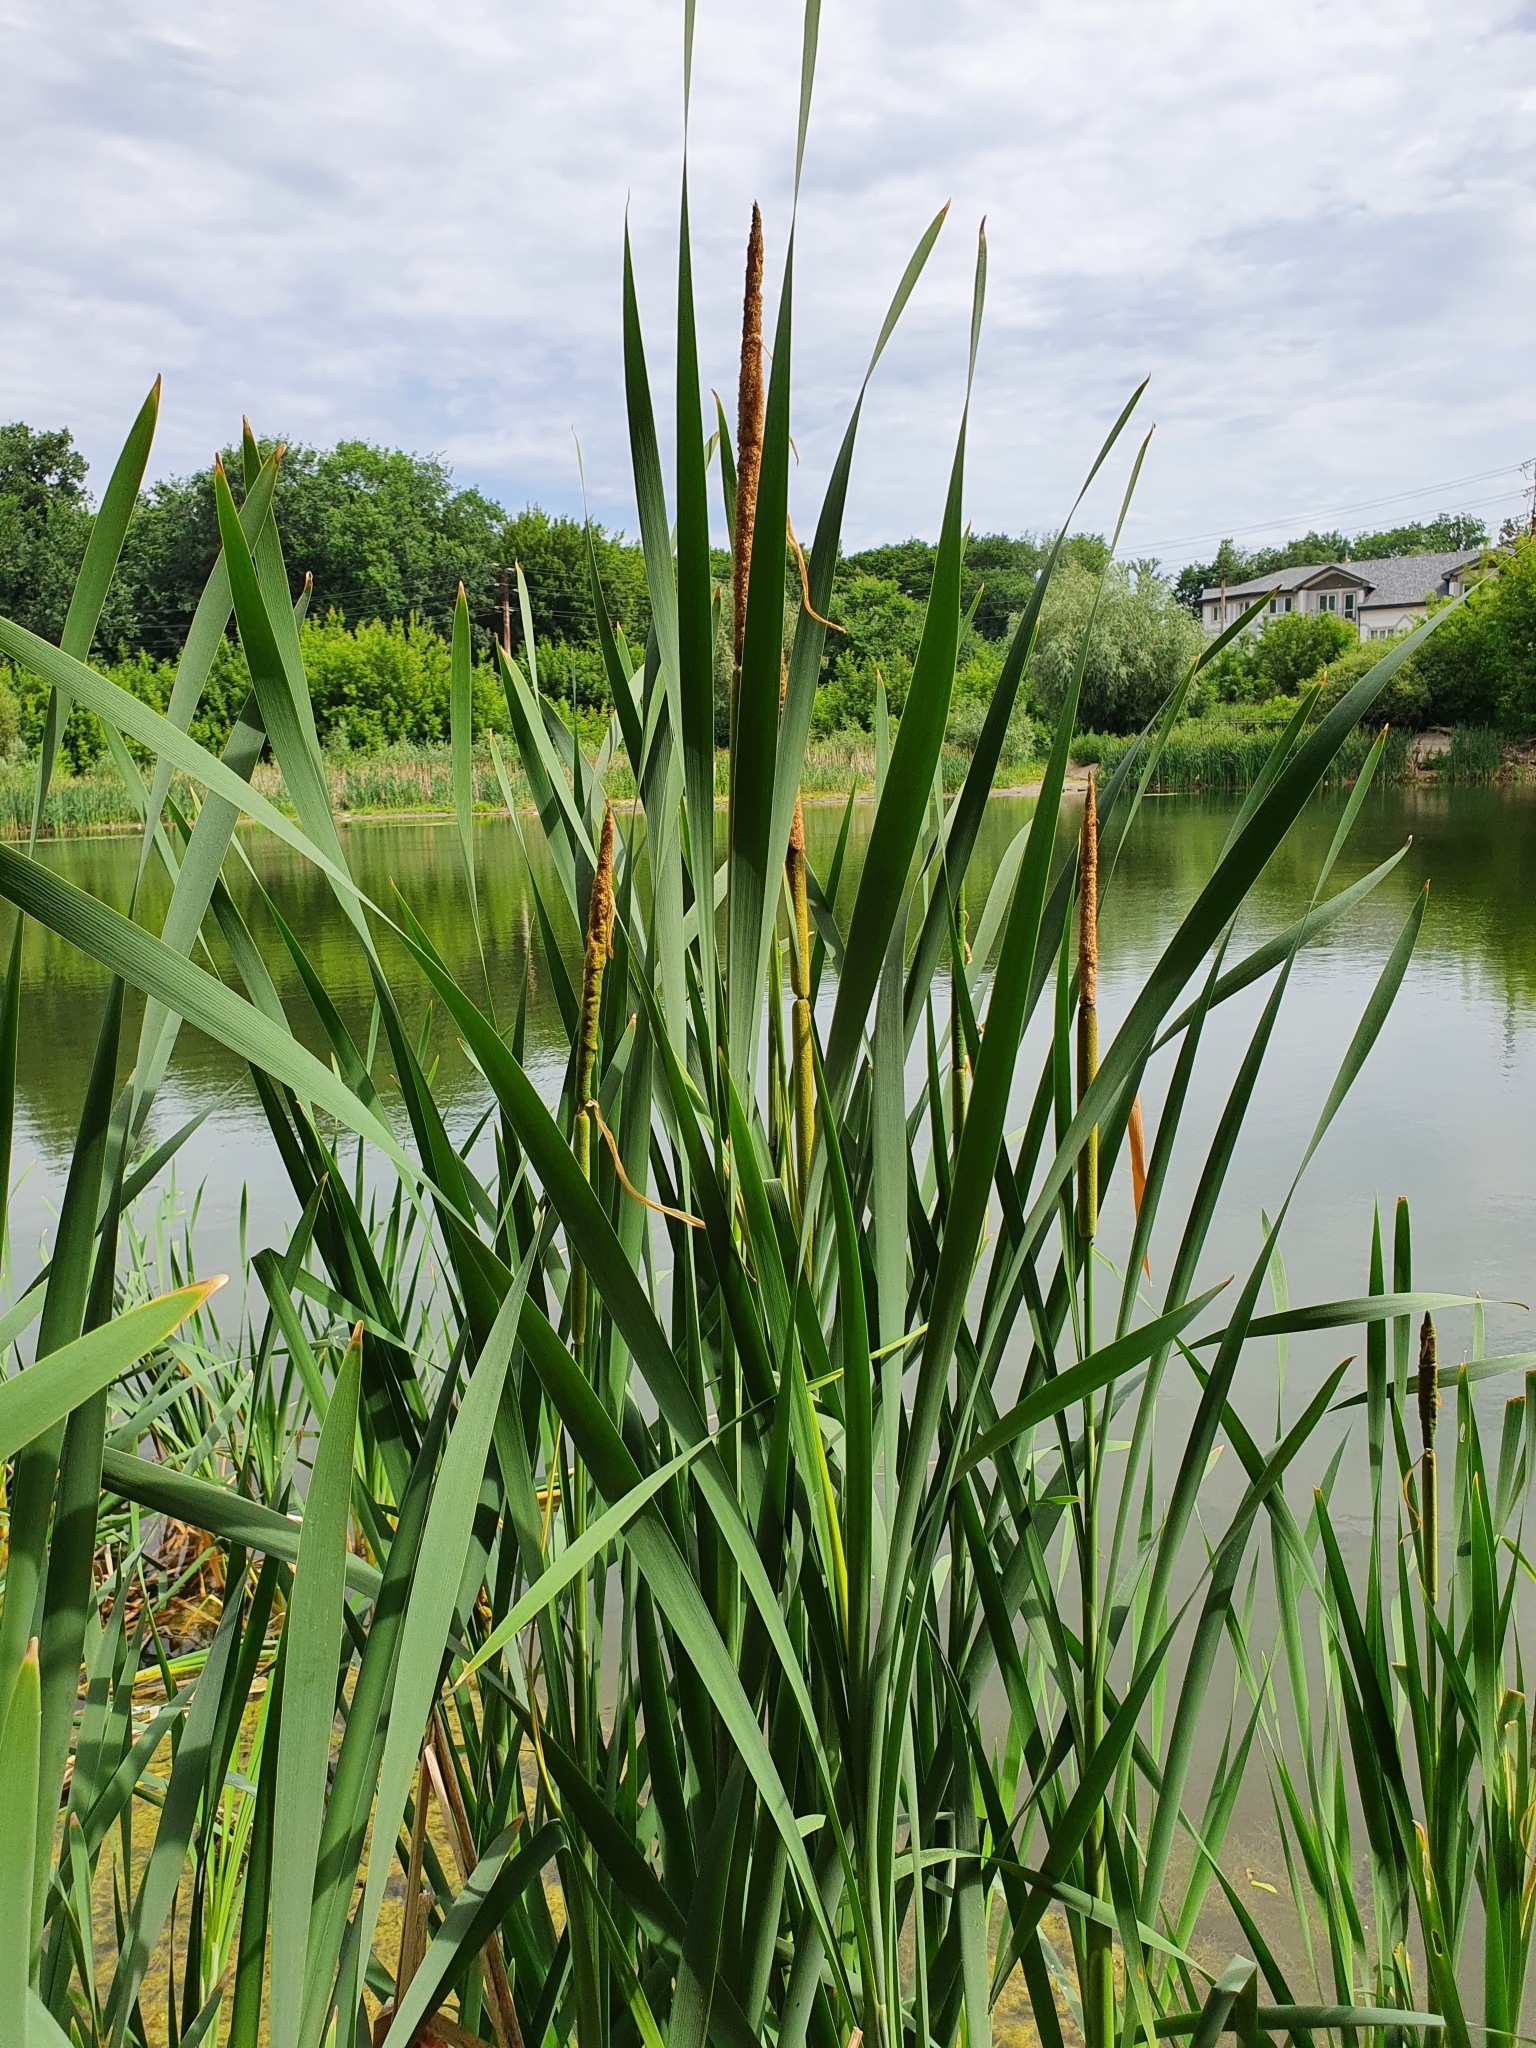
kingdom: Plantae
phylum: Tracheophyta
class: Liliopsida
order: Poales
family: Typhaceae
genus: Typha
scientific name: Typha latifolia
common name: Broadleaf cattail
